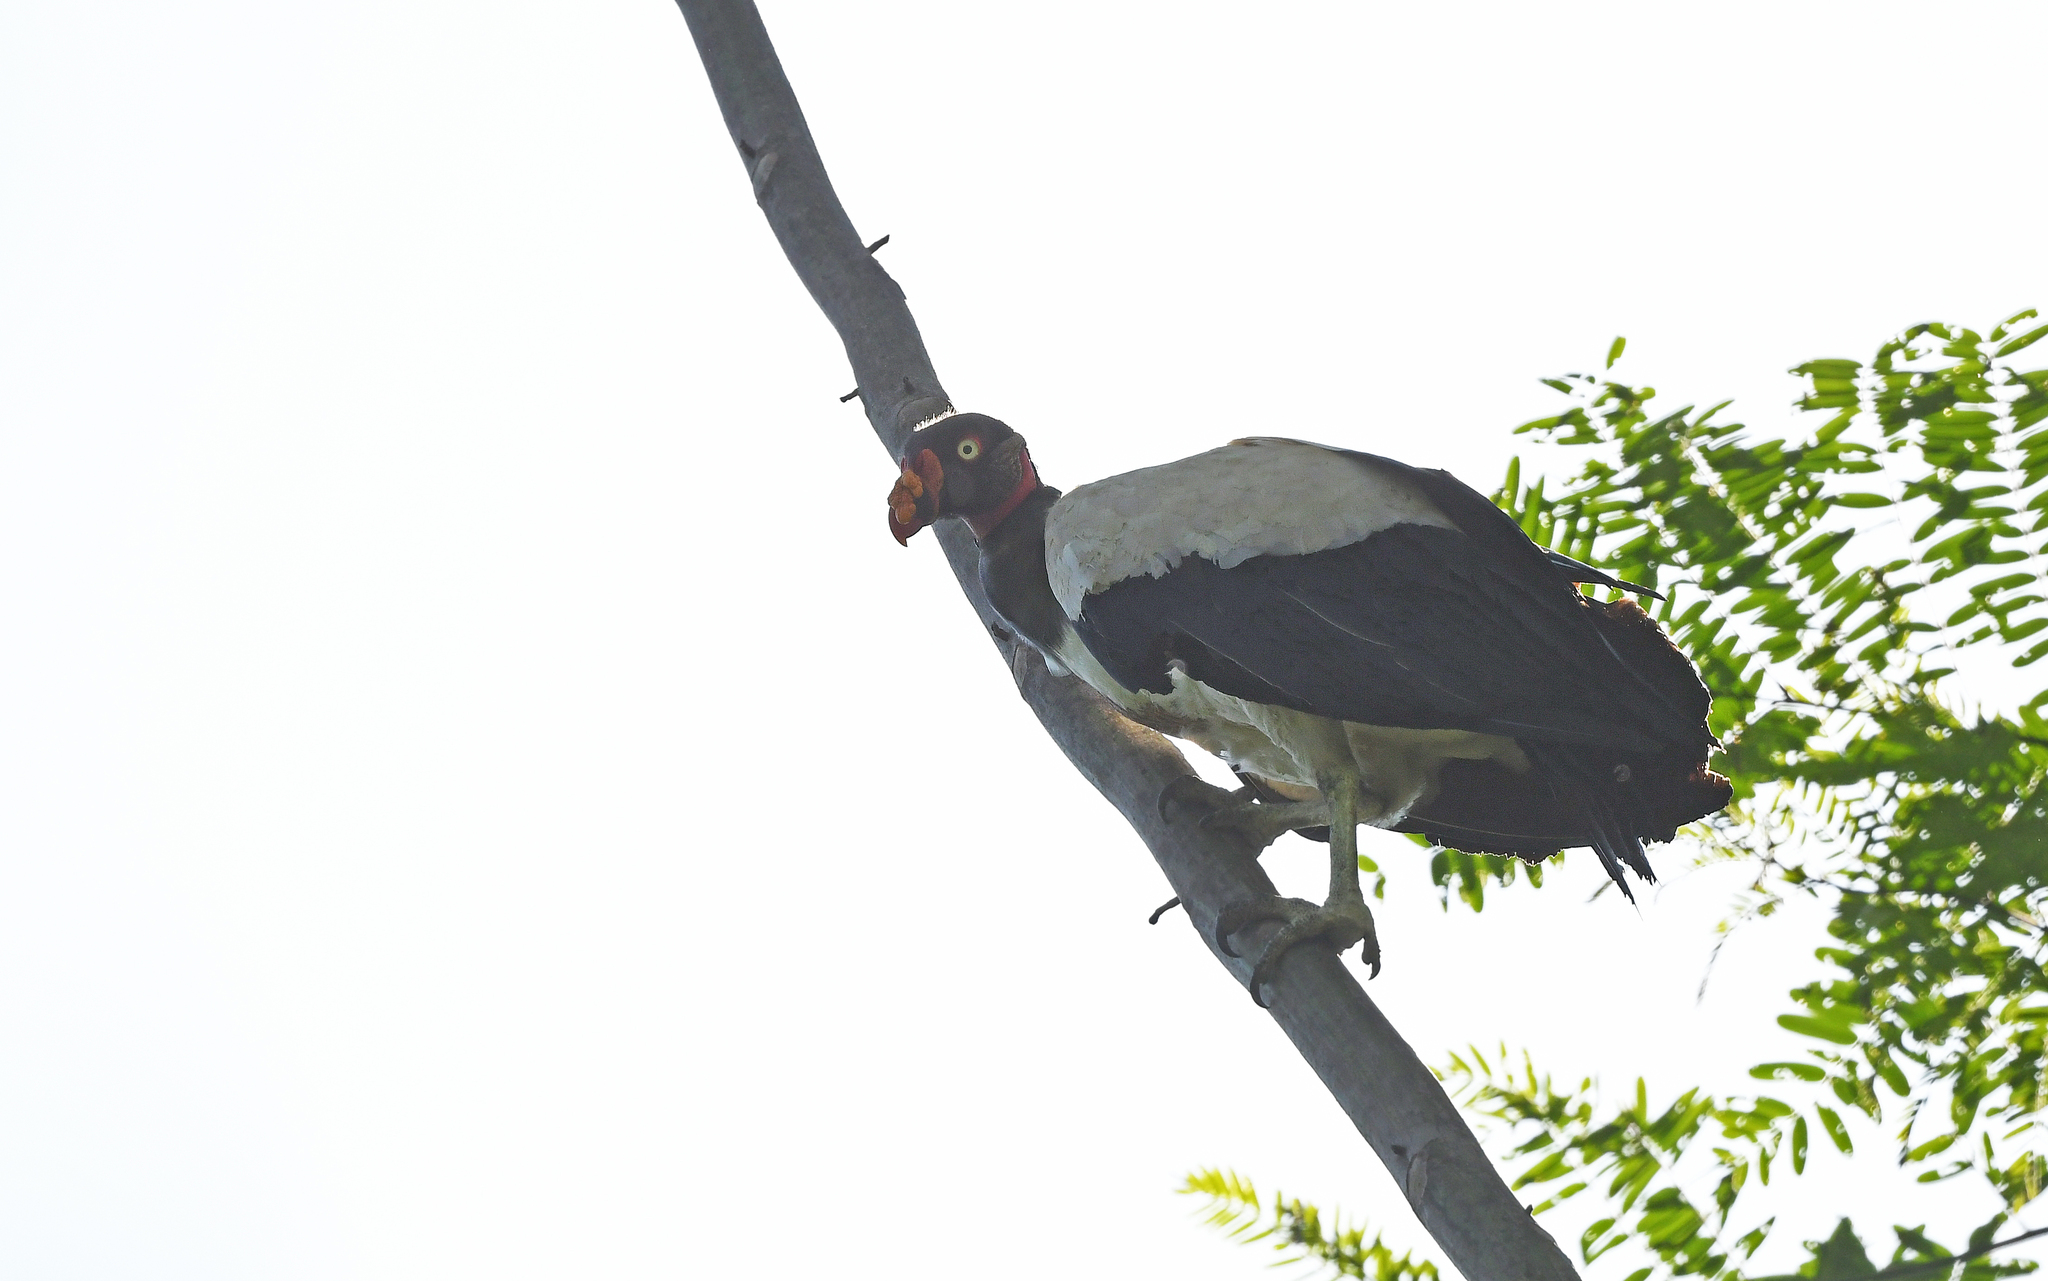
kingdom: Animalia
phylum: Chordata
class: Aves
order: Accipitriformes
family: Cathartidae
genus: Sarcoramphus
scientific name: Sarcoramphus papa
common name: King vulture
